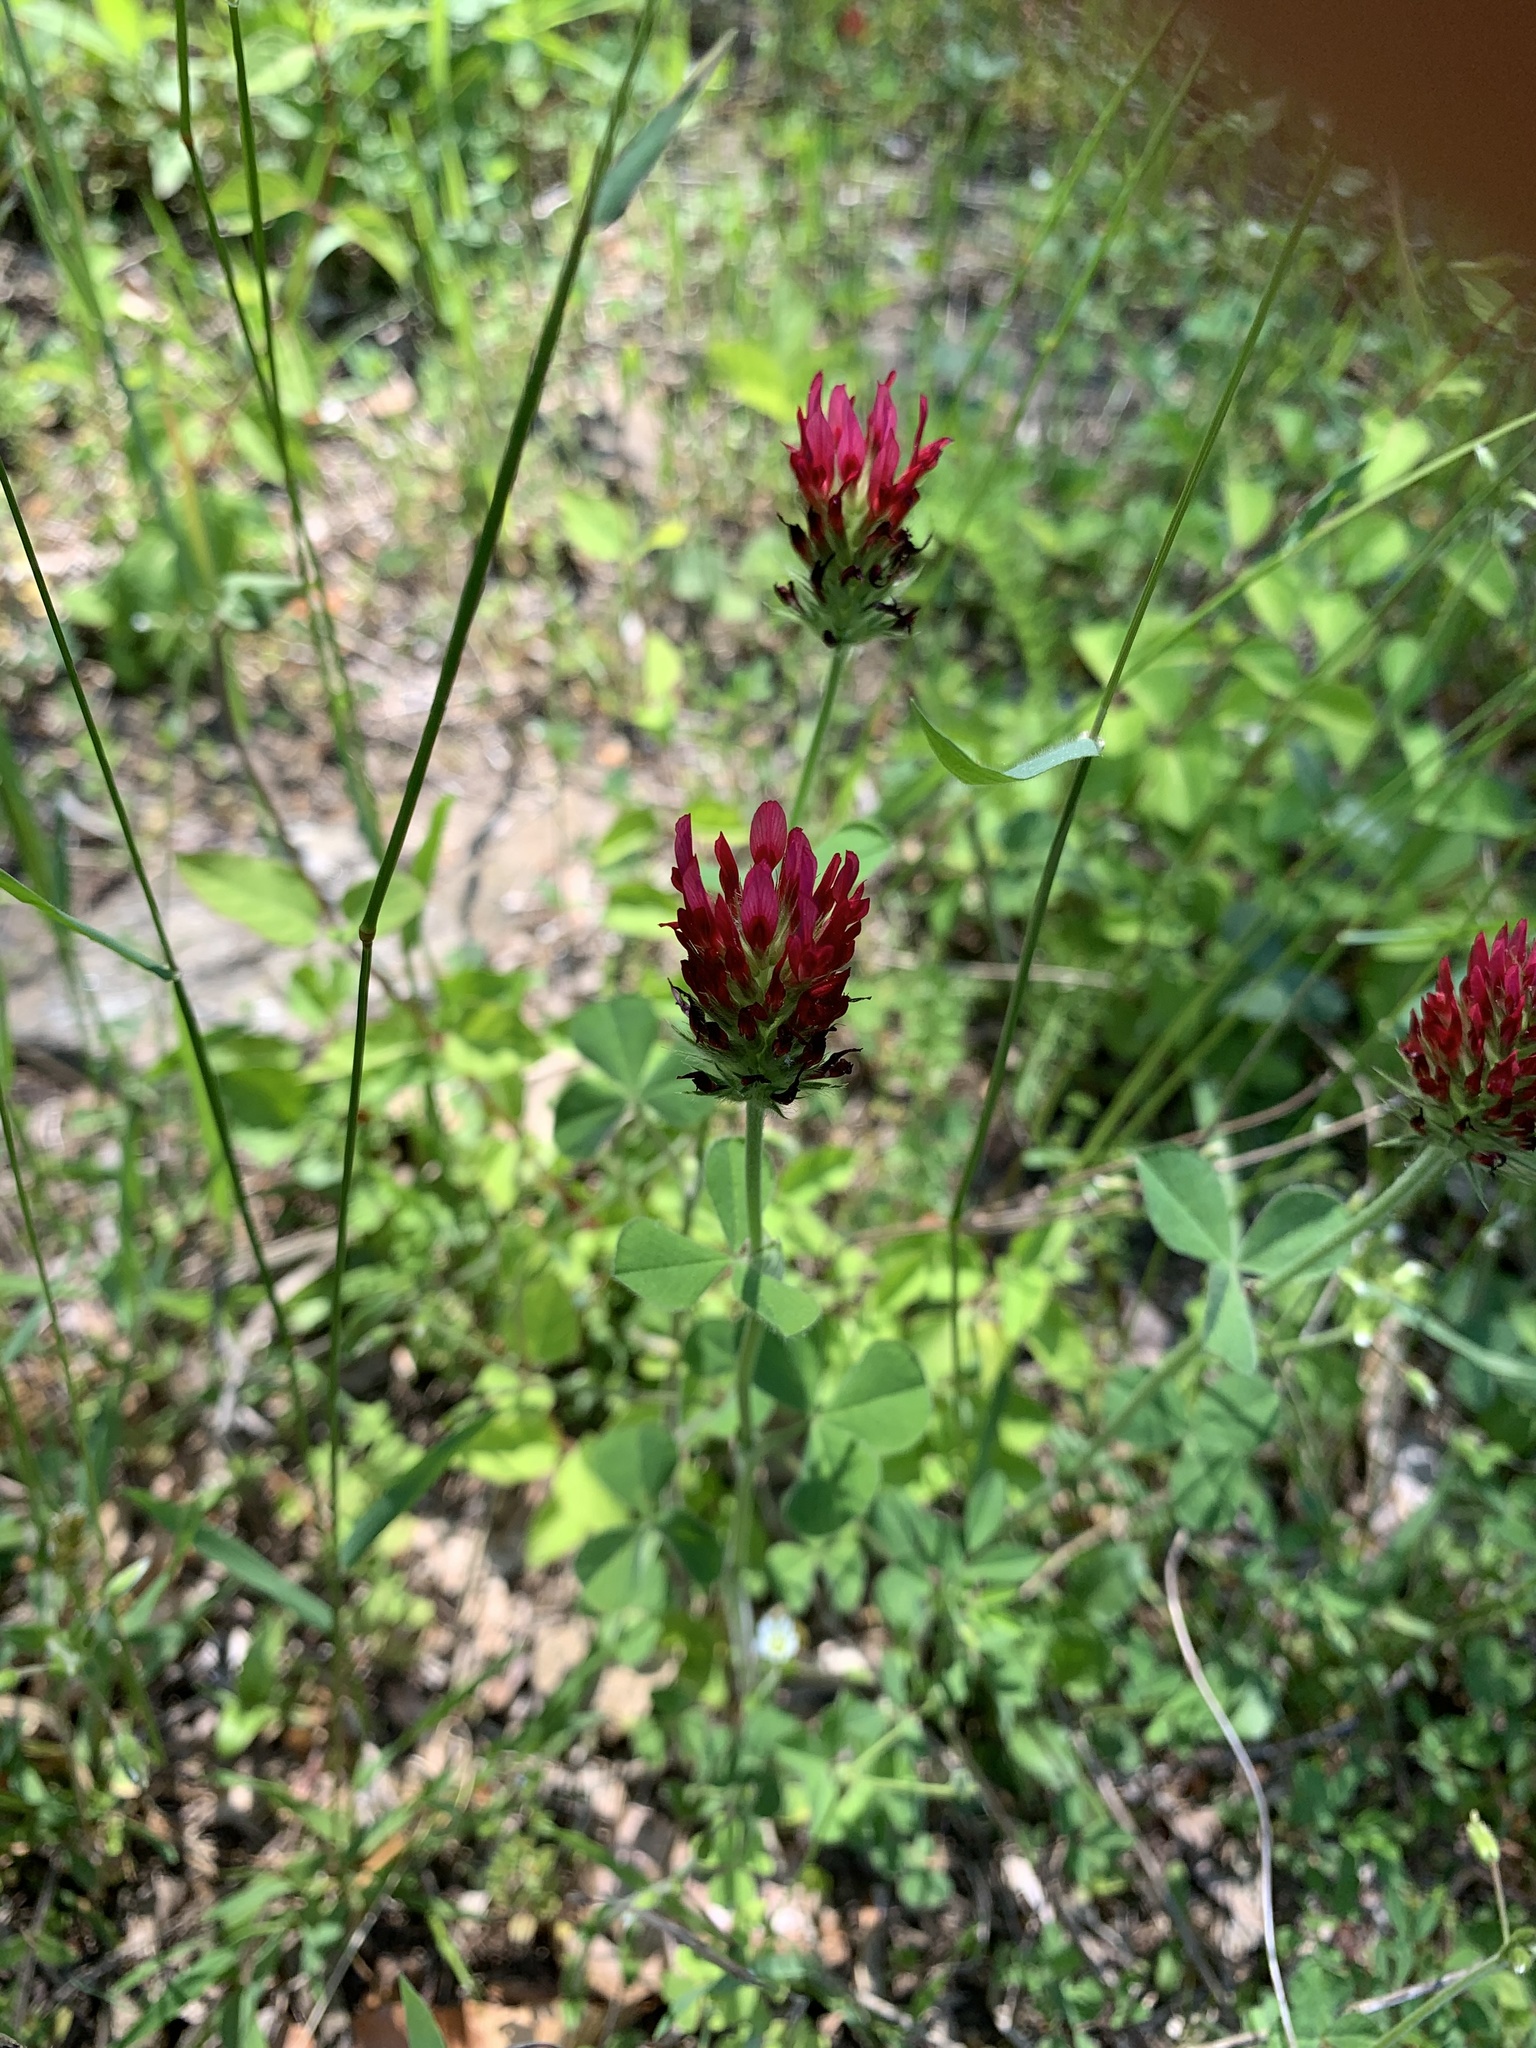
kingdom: Plantae
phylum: Tracheophyta
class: Magnoliopsida
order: Fabales
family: Fabaceae
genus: Trifolium
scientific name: Trifolium incarnatum
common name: Crimson clover
